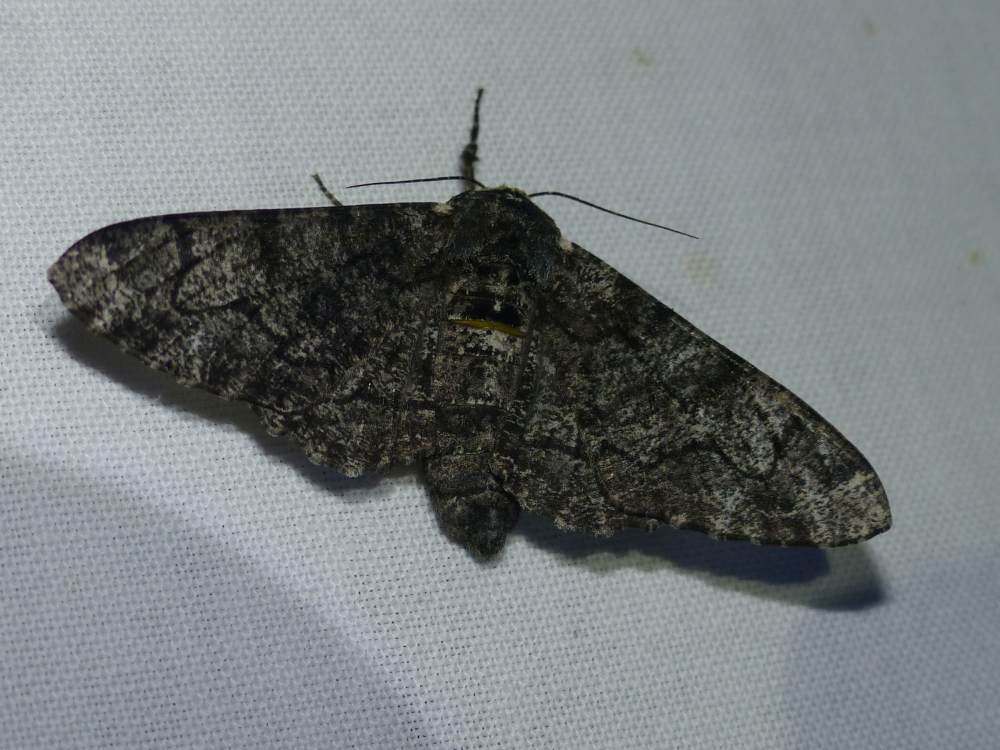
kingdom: Animalia
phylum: Arthropoda
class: Insecta
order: Lepidoptera
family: Geometridae
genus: Biston
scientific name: Biston betularia
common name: Peppered moth
